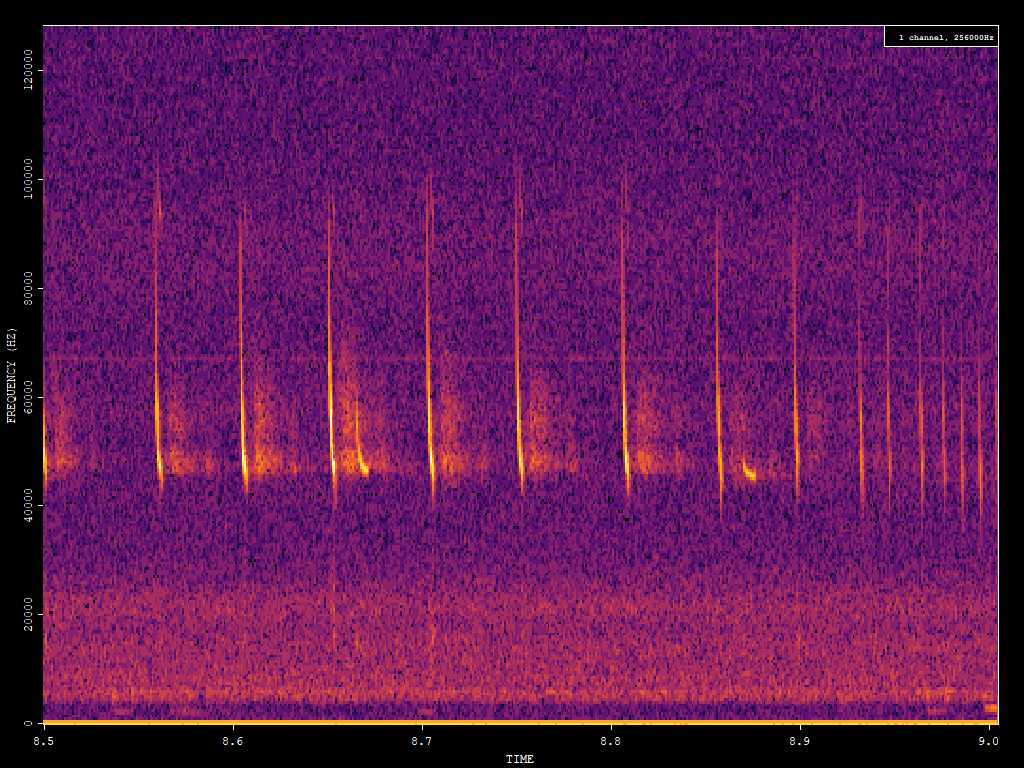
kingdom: Animalia
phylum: Chordata
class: Mammalia
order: Chiroptera
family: Vespertilionidae
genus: Pipistrellus
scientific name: Pipistrellus pipistrellus
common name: Common pipistrelle
